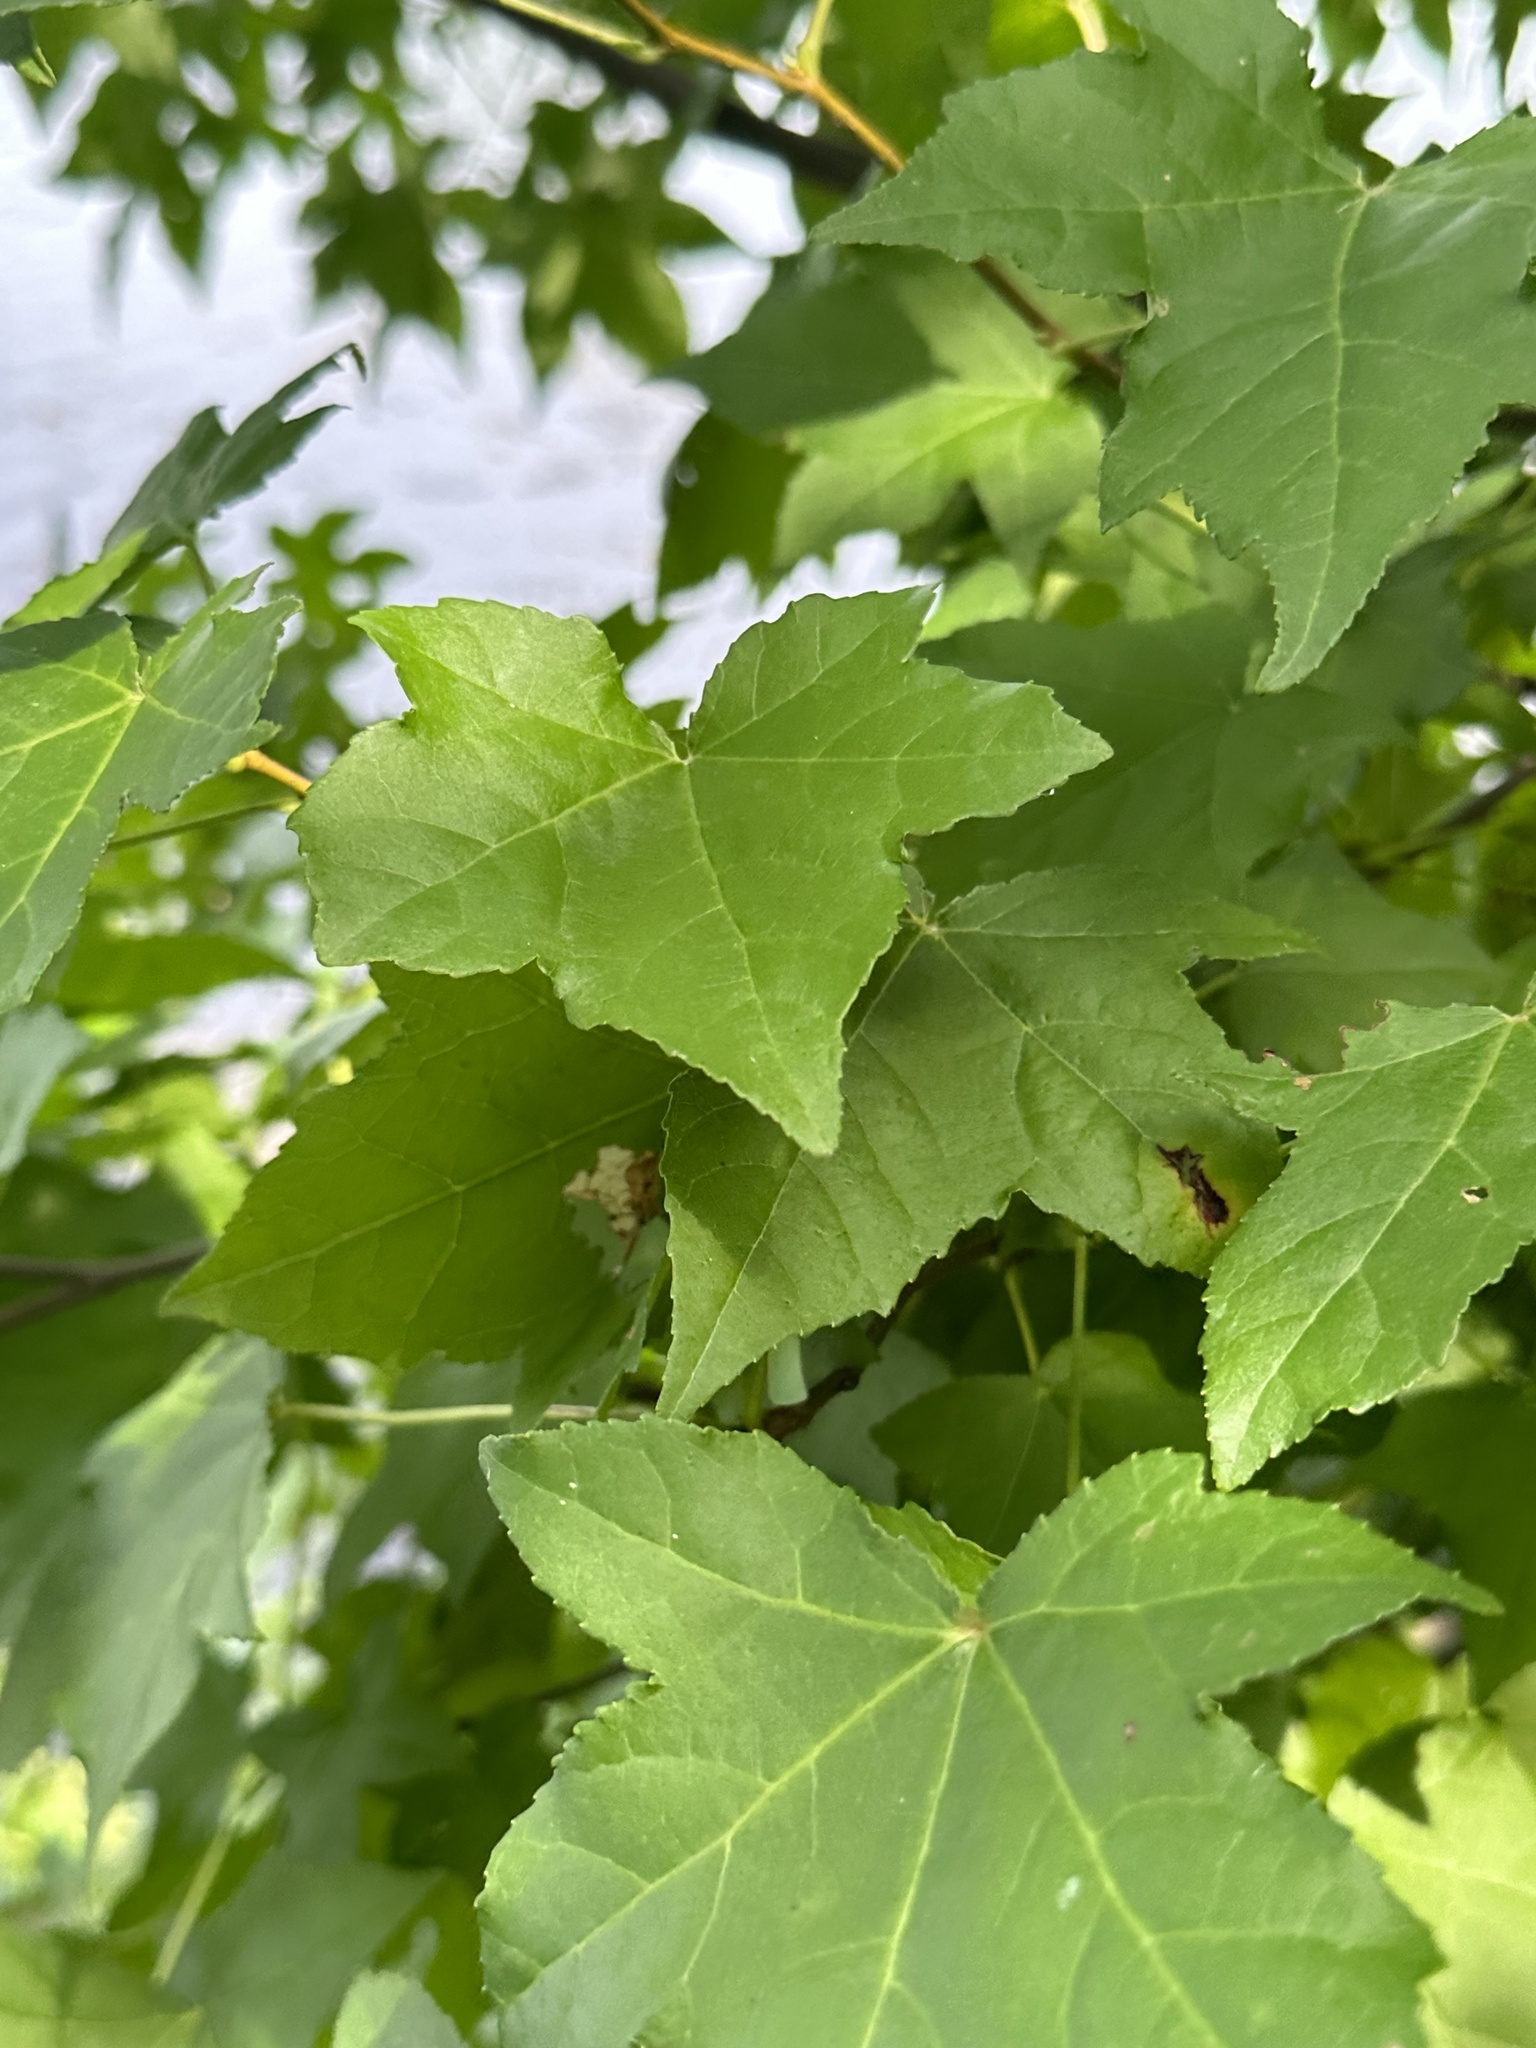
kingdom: Plantae
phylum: Tracheophyta
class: Magnoliopsida
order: Saxifragales
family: Altingiaceae
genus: Liquidambar
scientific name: Liquidambar styraciflua
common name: Sweet gum
